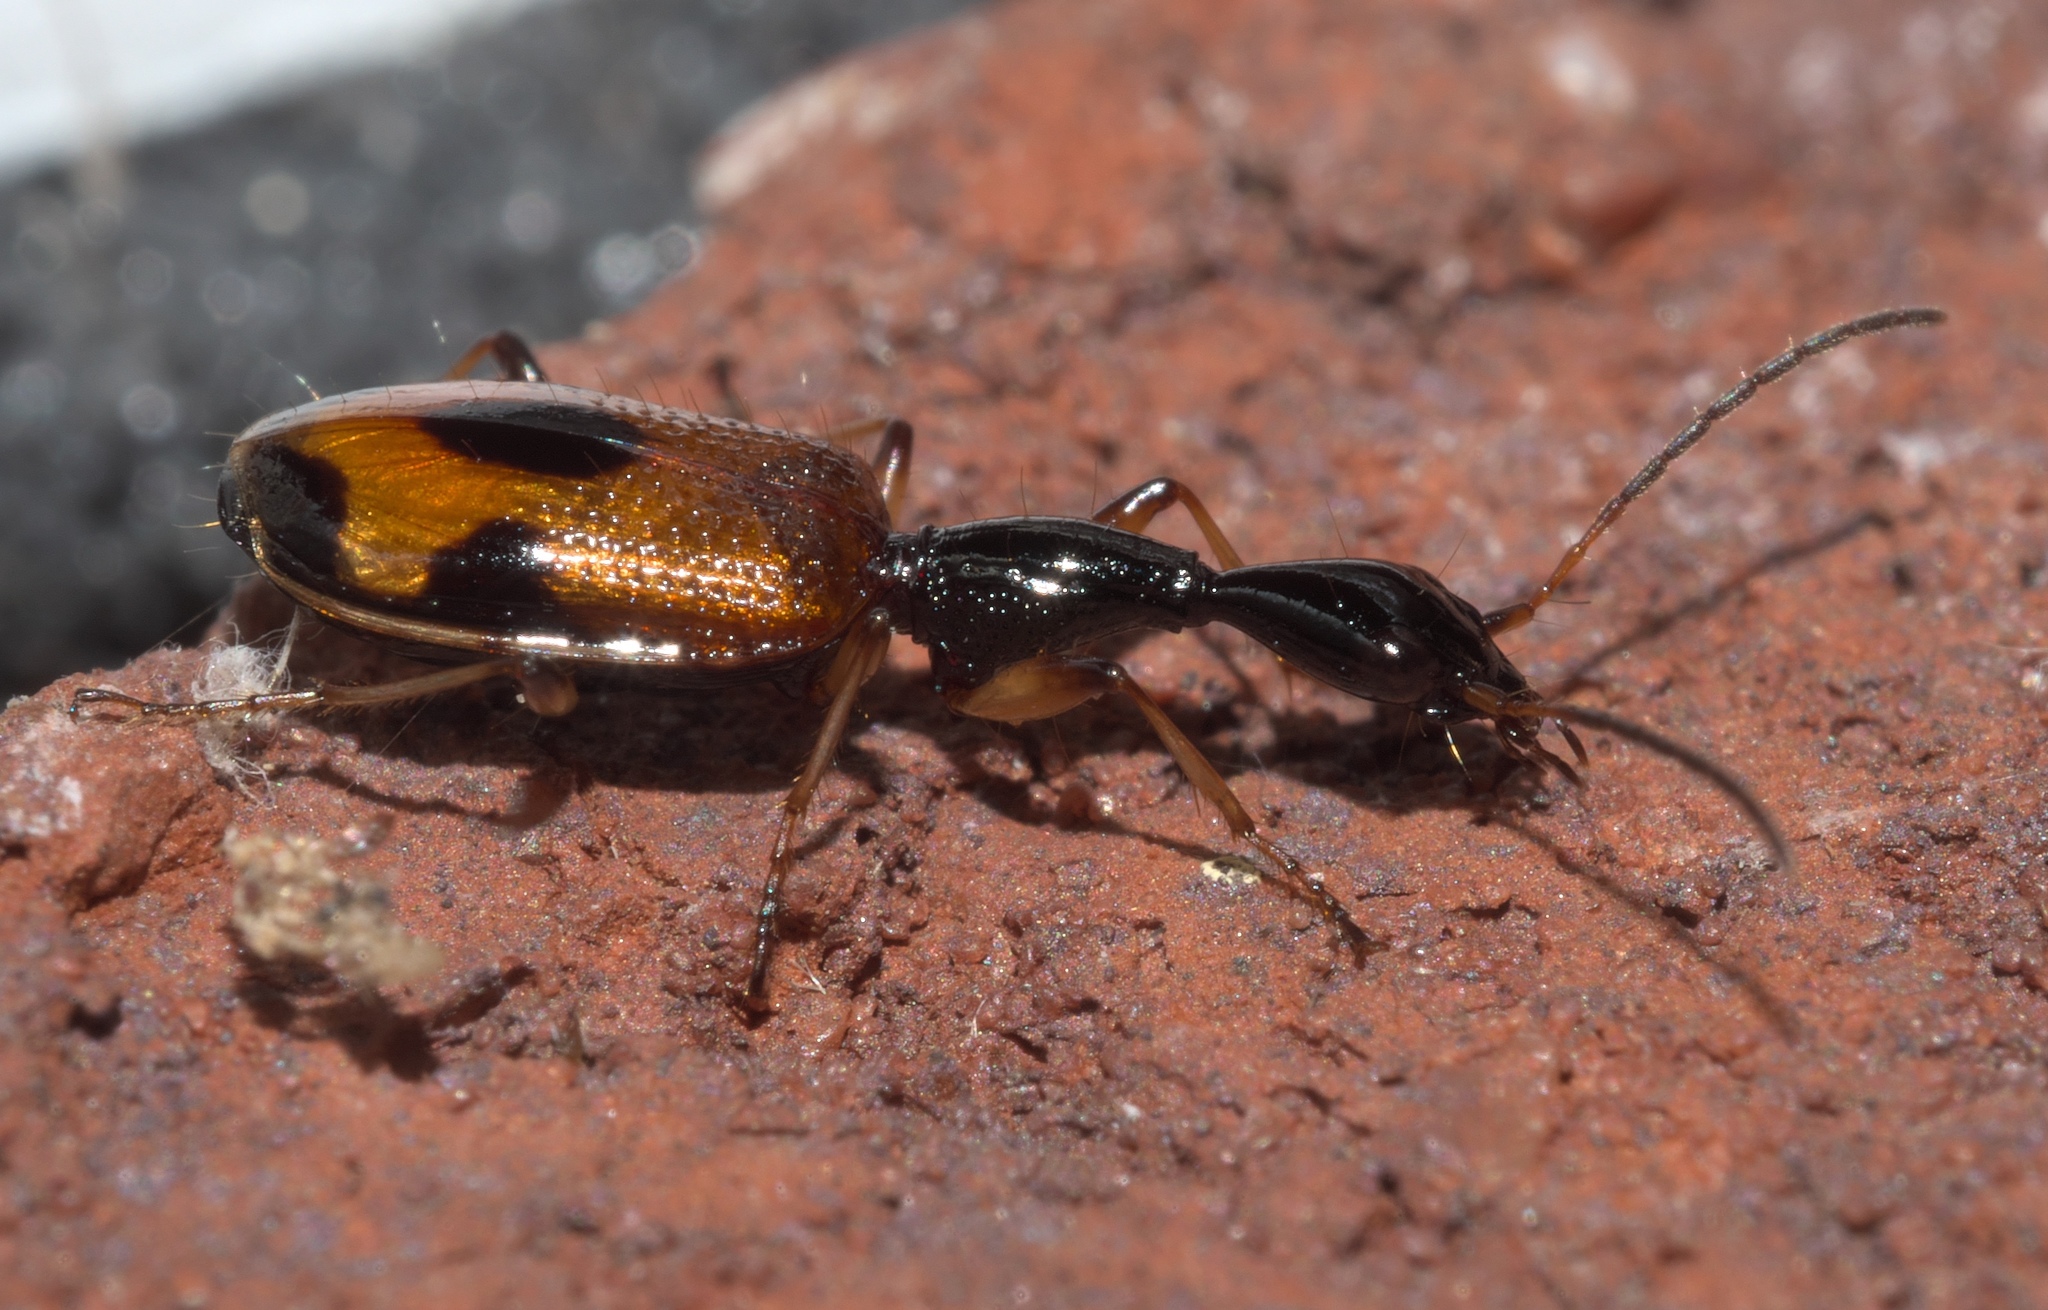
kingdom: Animalia
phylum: Arthropoda
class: Insecta
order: Coleoptera
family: Carabidae
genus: Colliuris
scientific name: Colliuris pensylvanica
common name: Long-necked ground beetle
